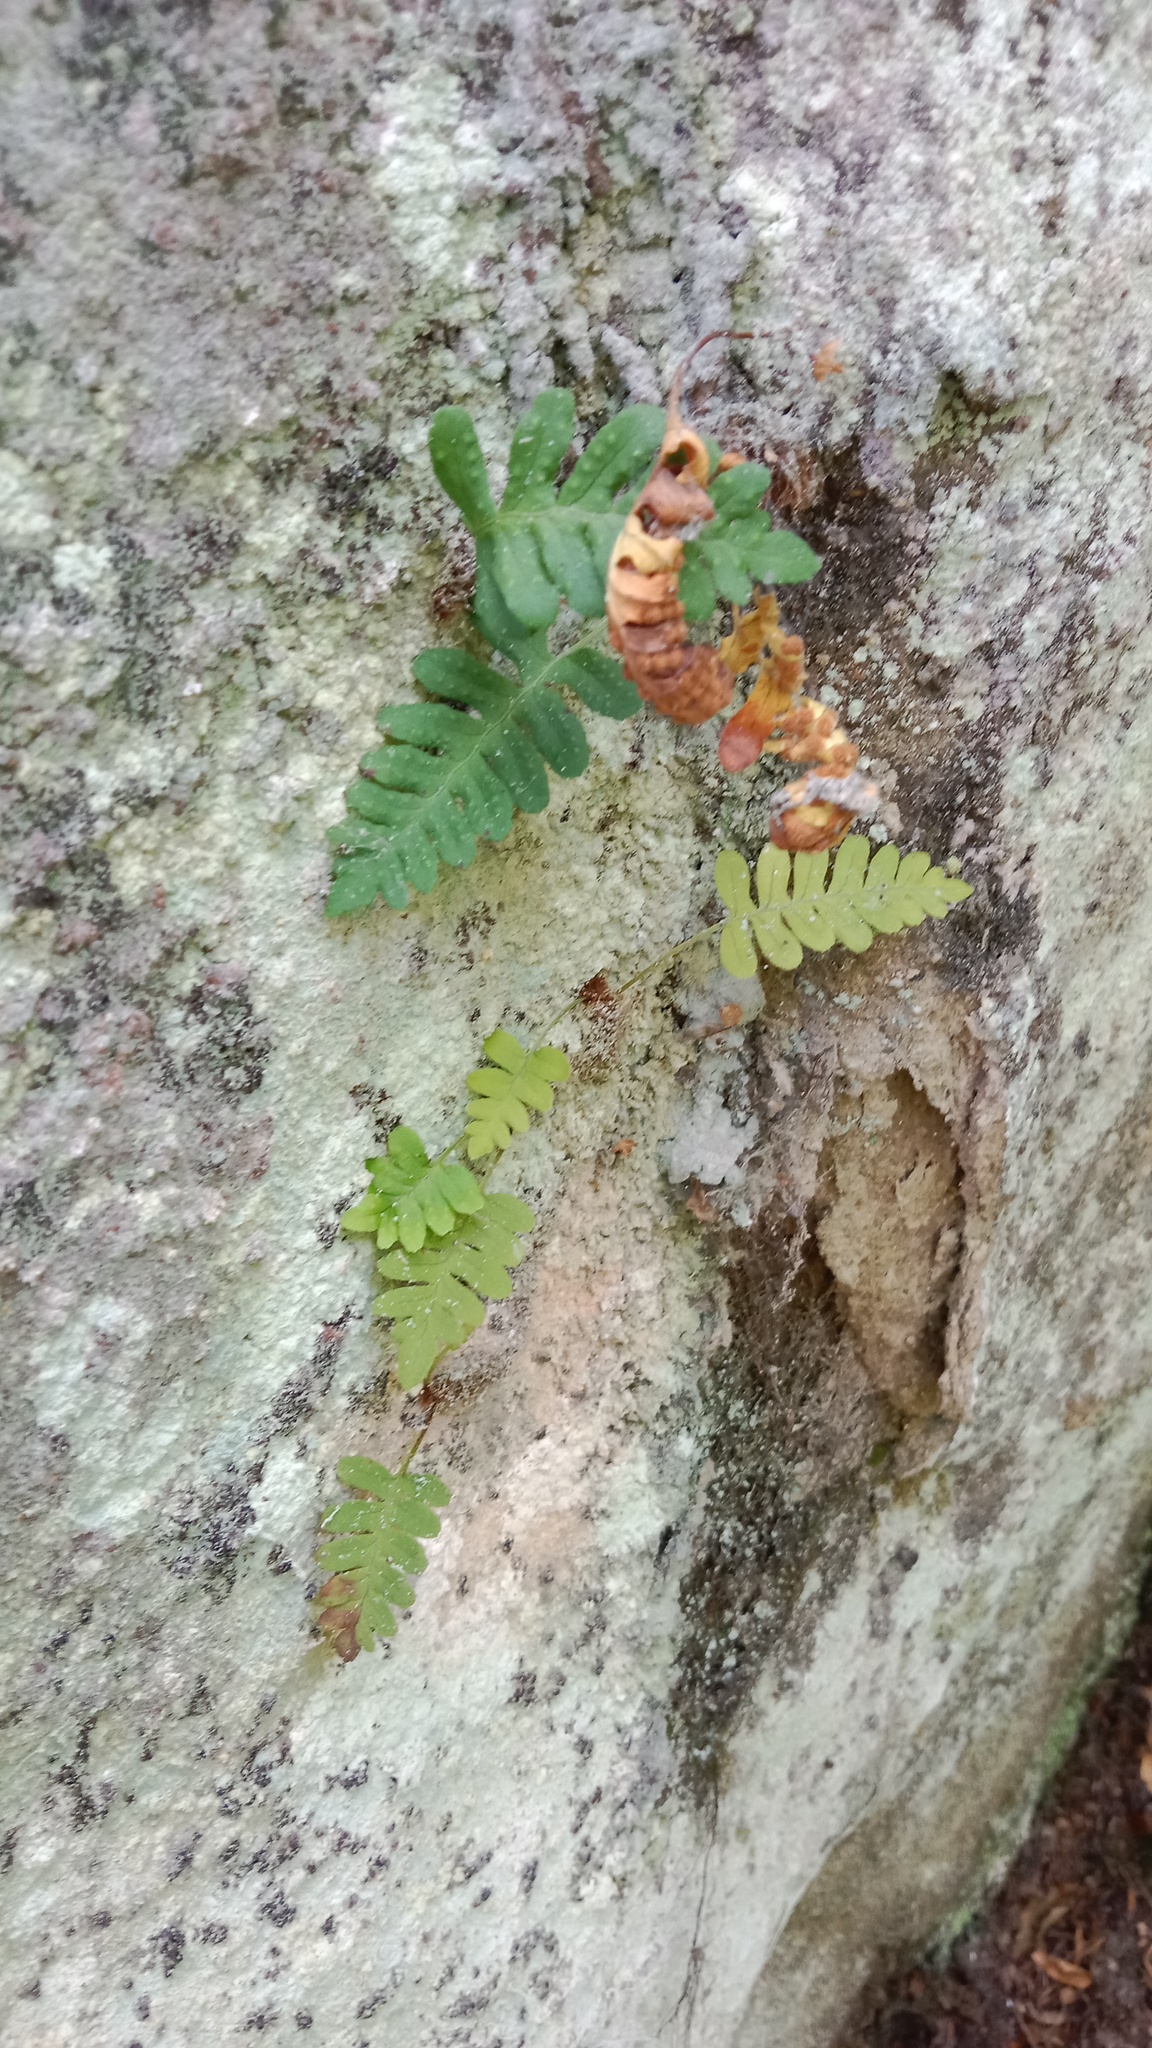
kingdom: Plantae
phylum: Tracheophyta
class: Polypodiopsida
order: Polypodiales
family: Polypodiaceae
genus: Polypodium
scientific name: Polypodium vulgare
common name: Common polypody
